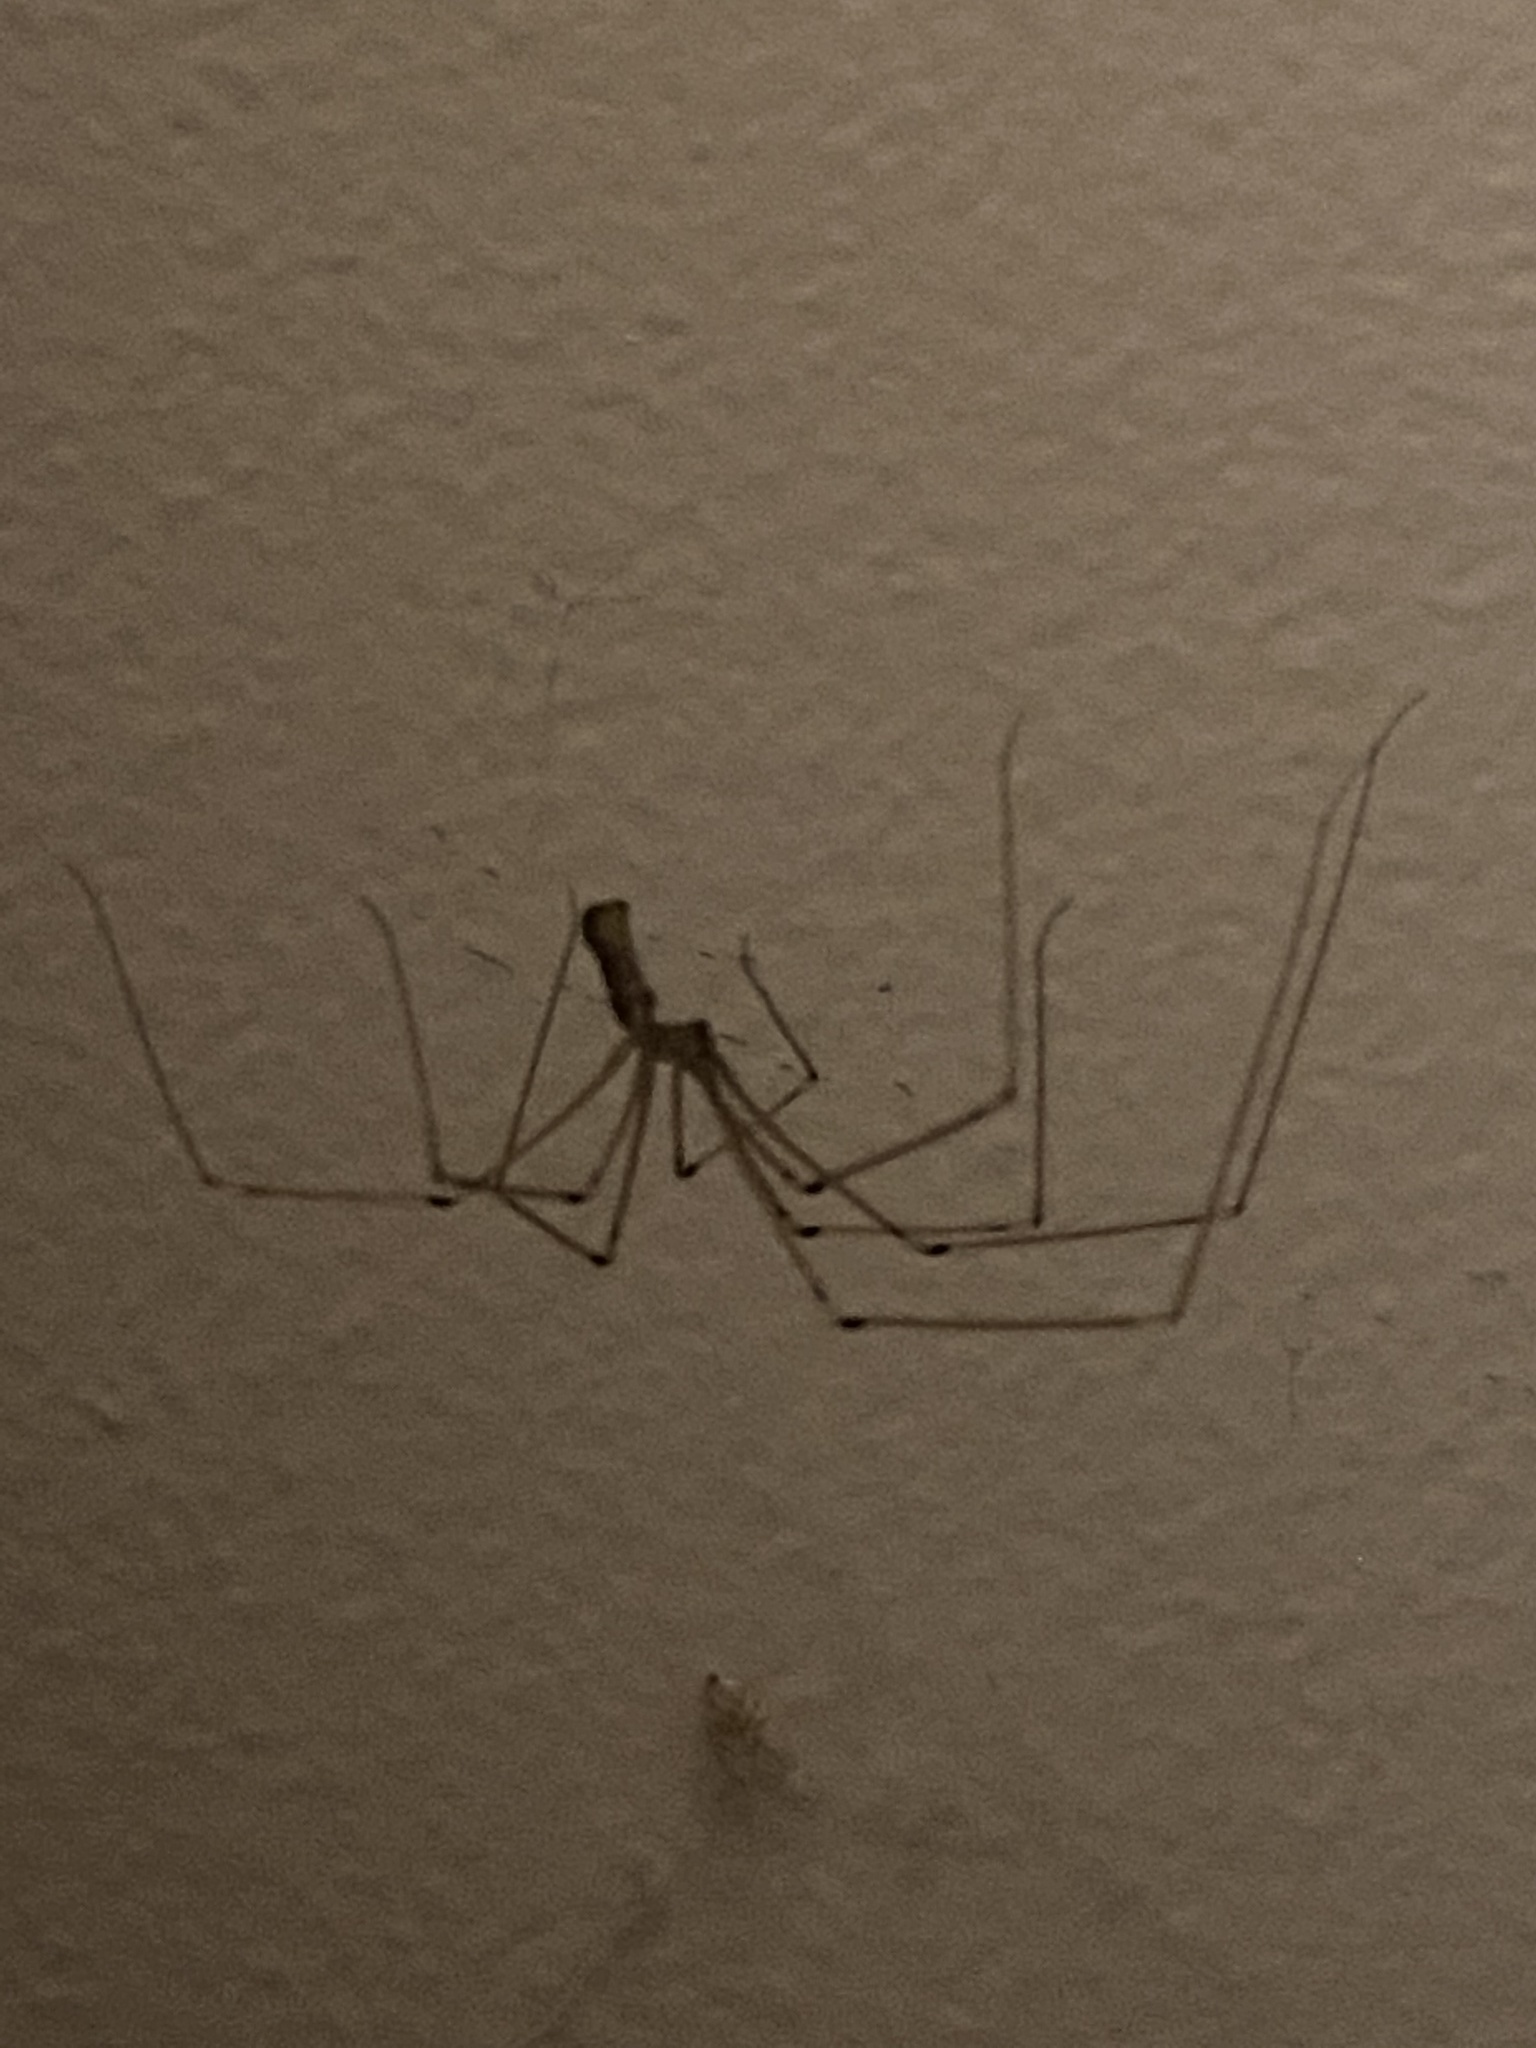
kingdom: Animalia
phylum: Arthropoda
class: Arachnida
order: Araneae
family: Pholcidae
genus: Pholcus
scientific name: Pholcus phalangioides
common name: Longbodied cellar spider
